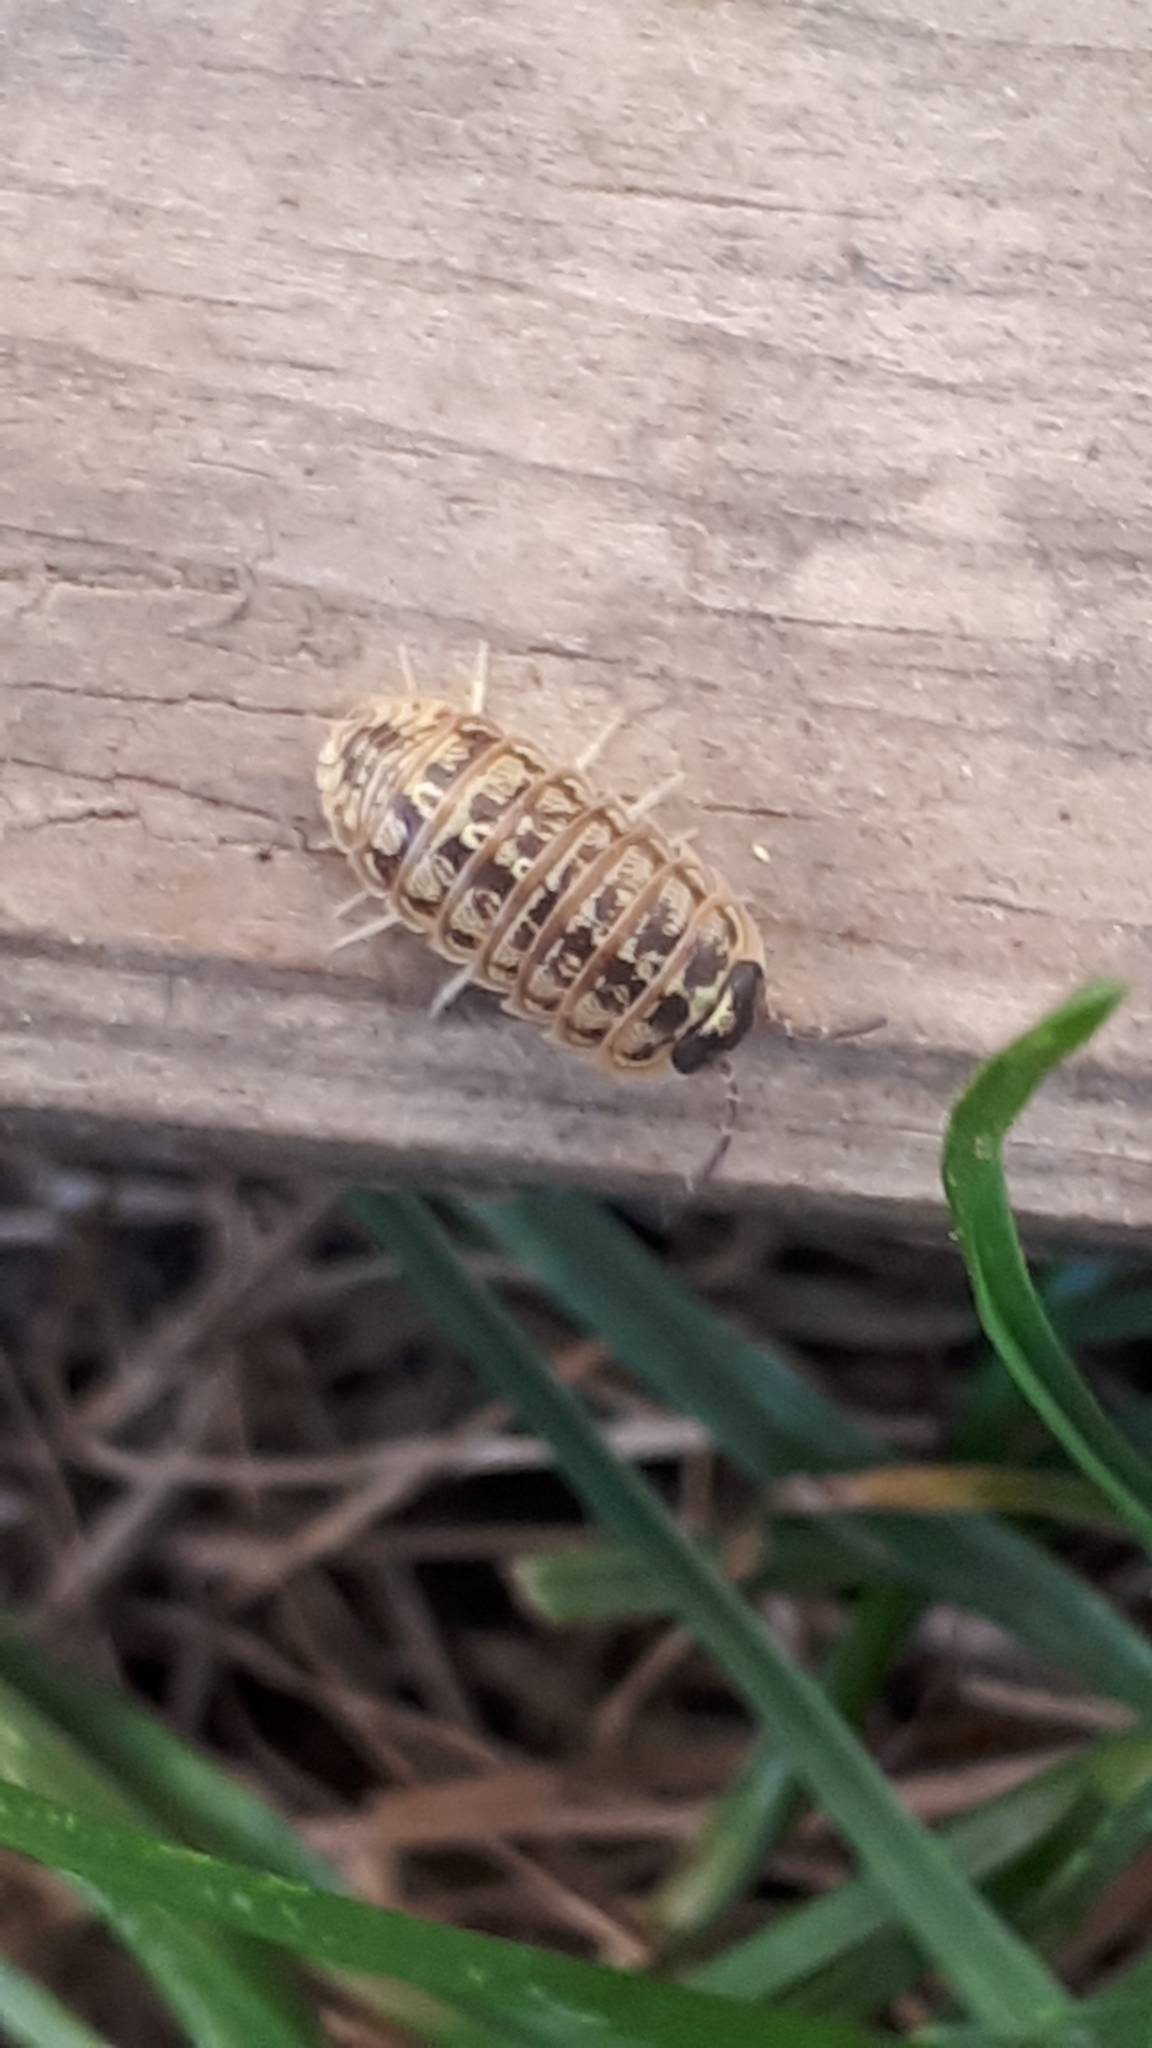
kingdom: Animalia
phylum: Arthropoda
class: Malacostraca
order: Isopoda
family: Armadillidiidae
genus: Armadillidium
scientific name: Armadillidium versicolor
